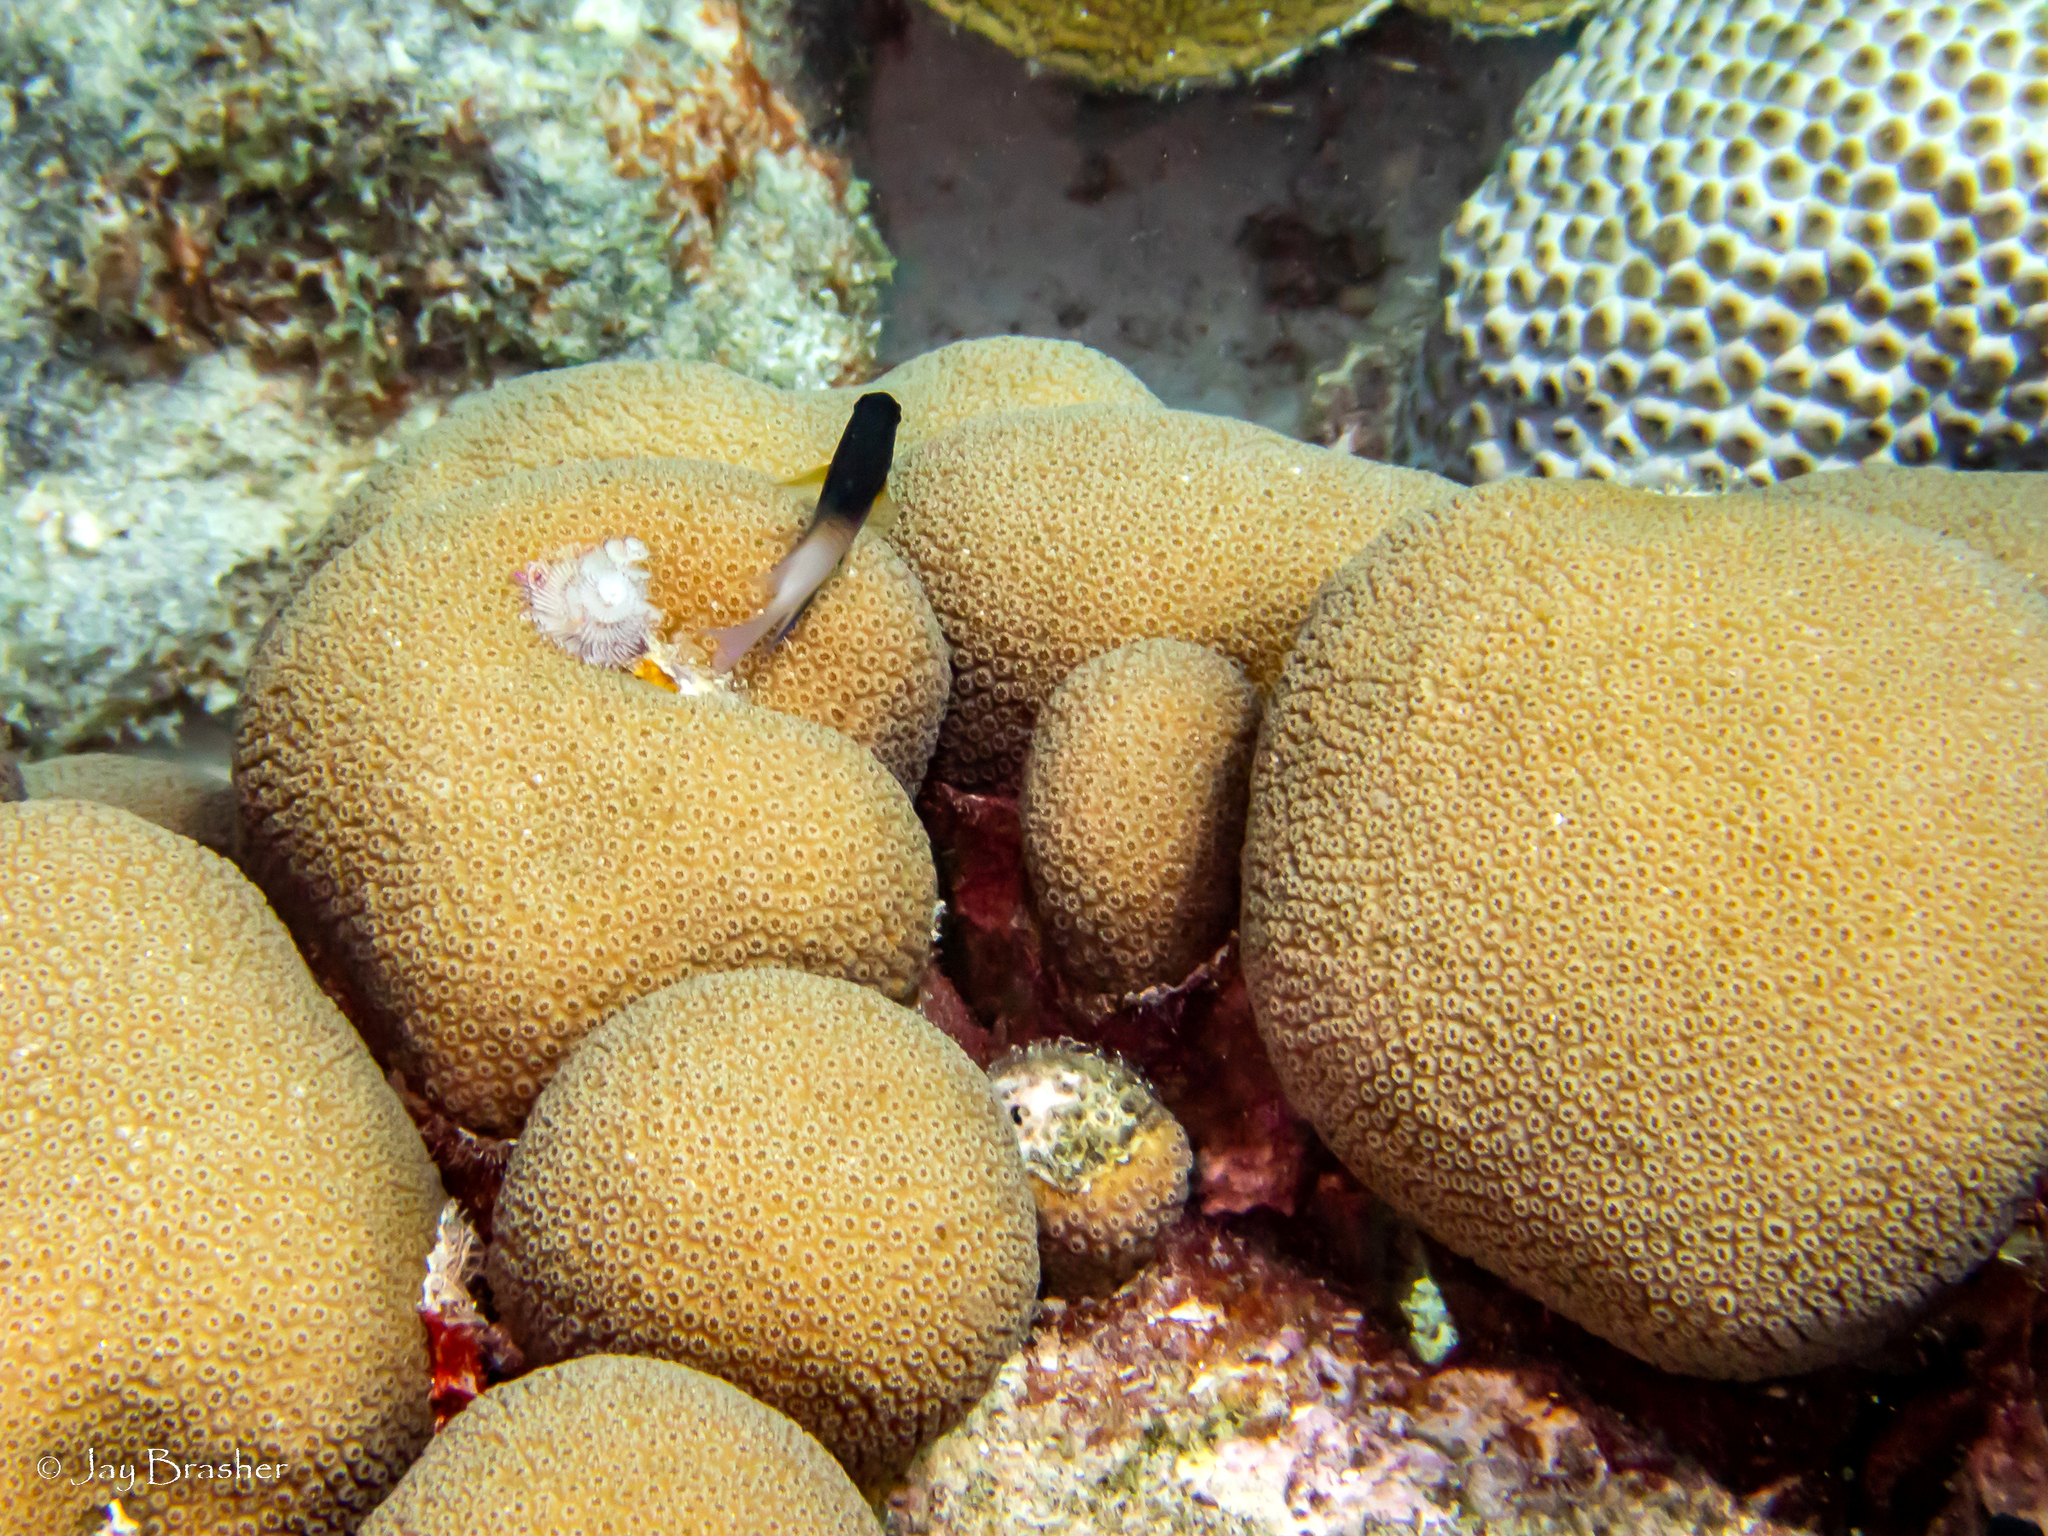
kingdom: Animalia
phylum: Cnidaria
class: Anthozoa
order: Scleractinia
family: Merulinidae
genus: Orbicella
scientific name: Orbicella annularis
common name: Boulder star coral
